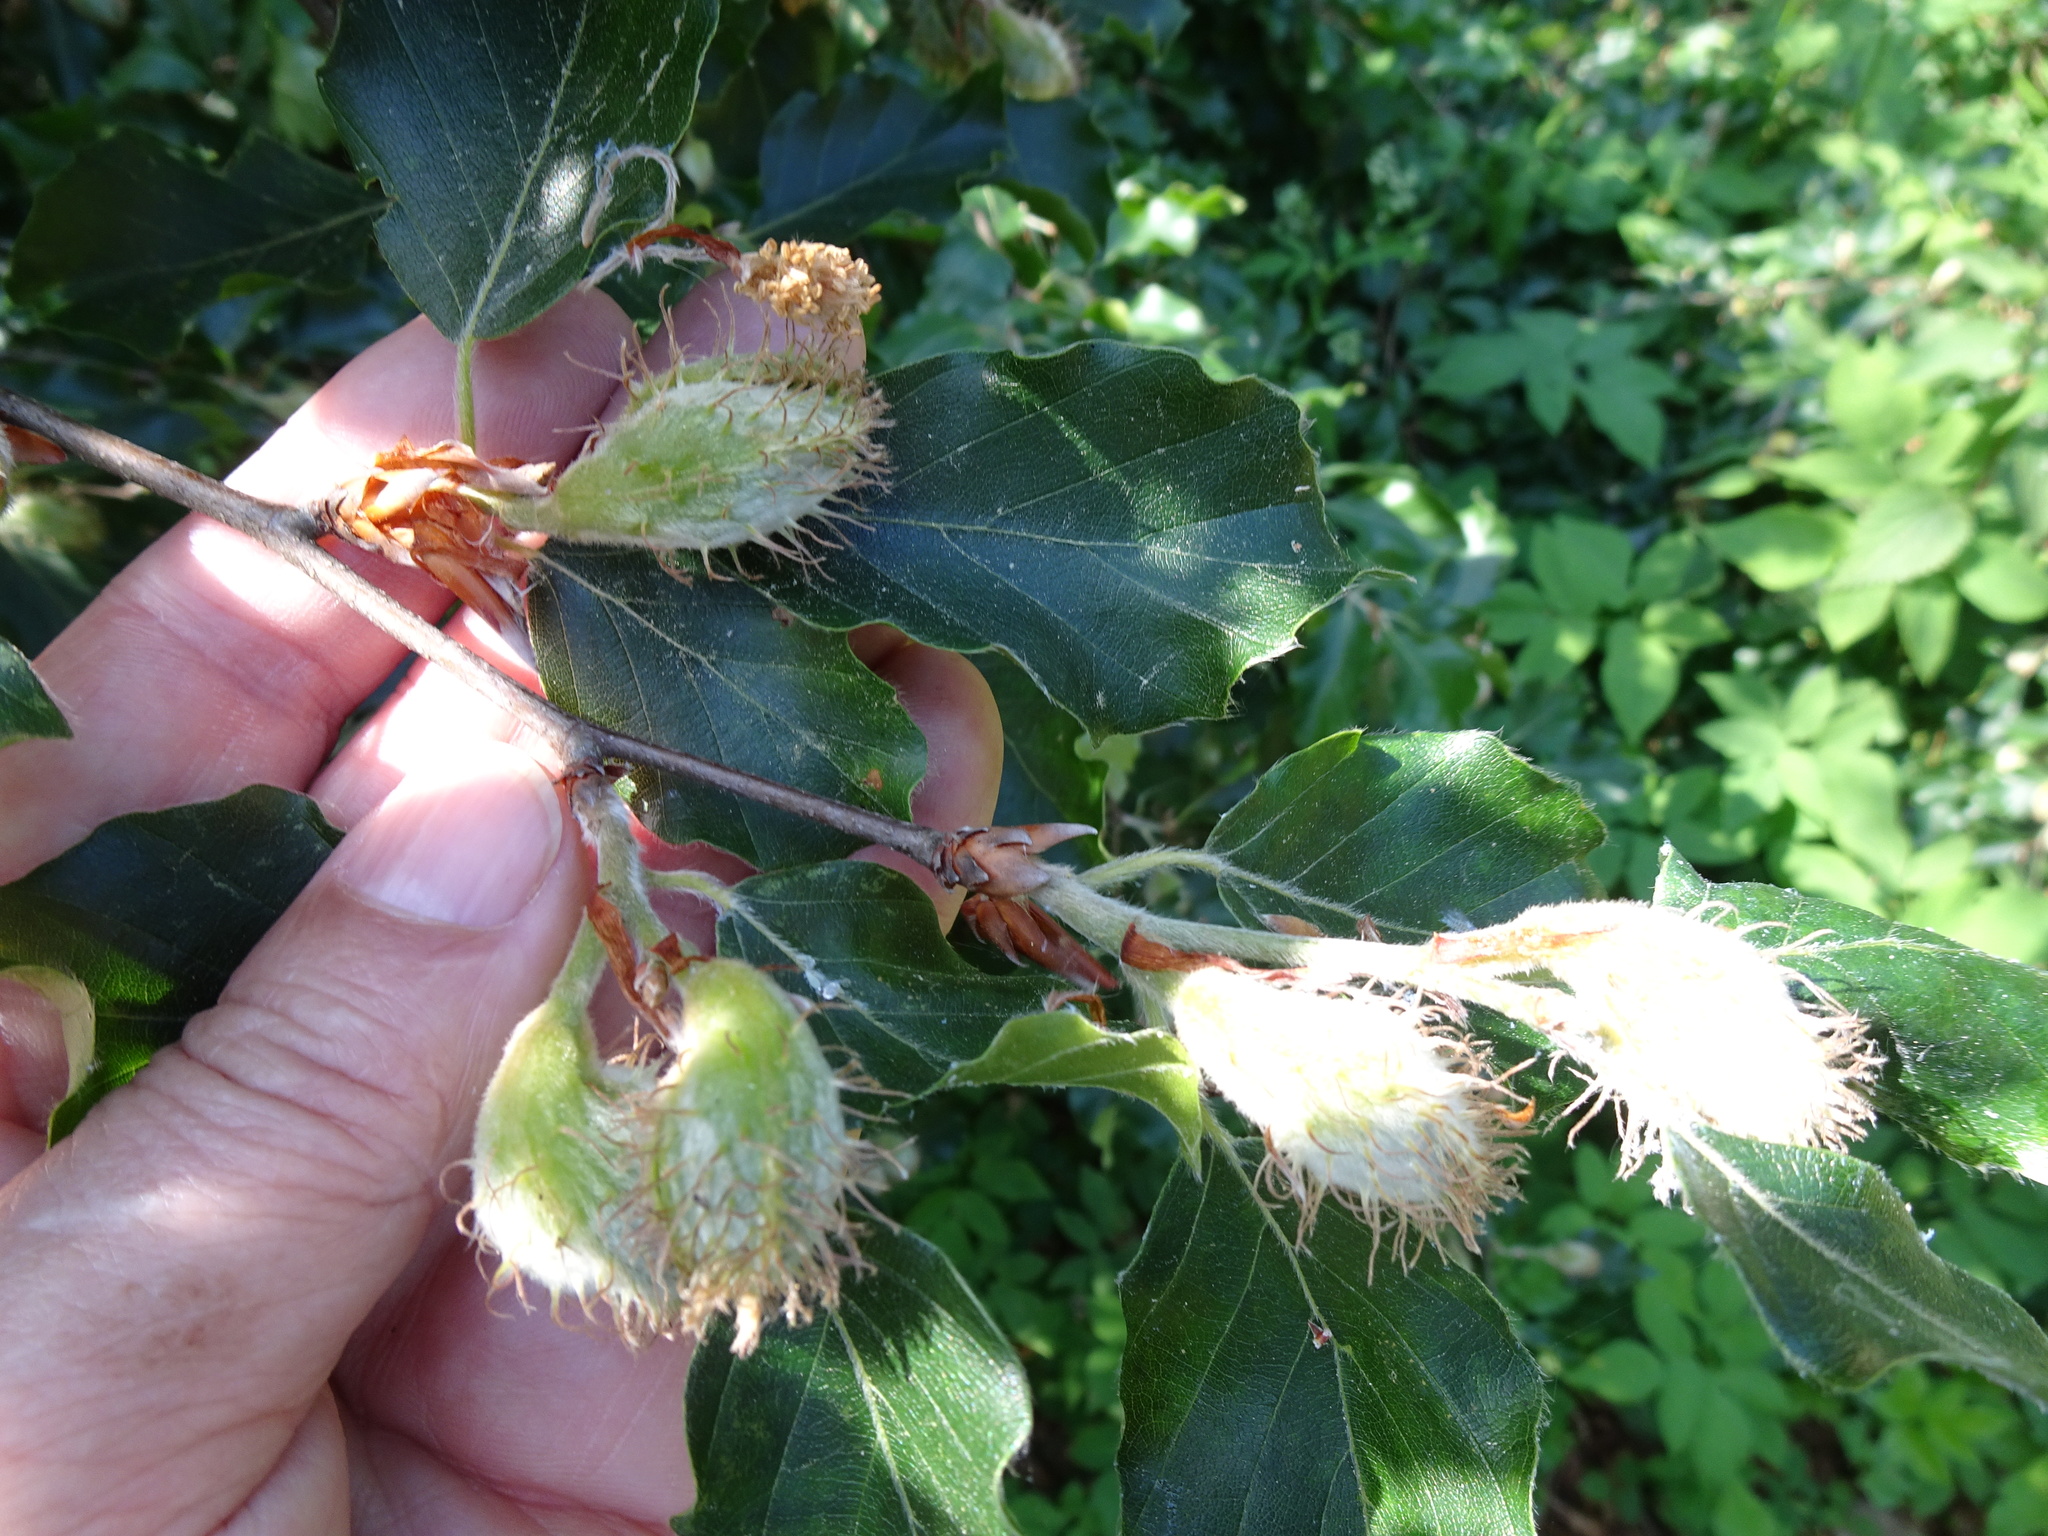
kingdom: Plantae
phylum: Tracheophyta
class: Magnoliopsida
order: Fagales
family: Fagaceae
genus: Fagus
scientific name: Fagus sylvatica
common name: Beech
